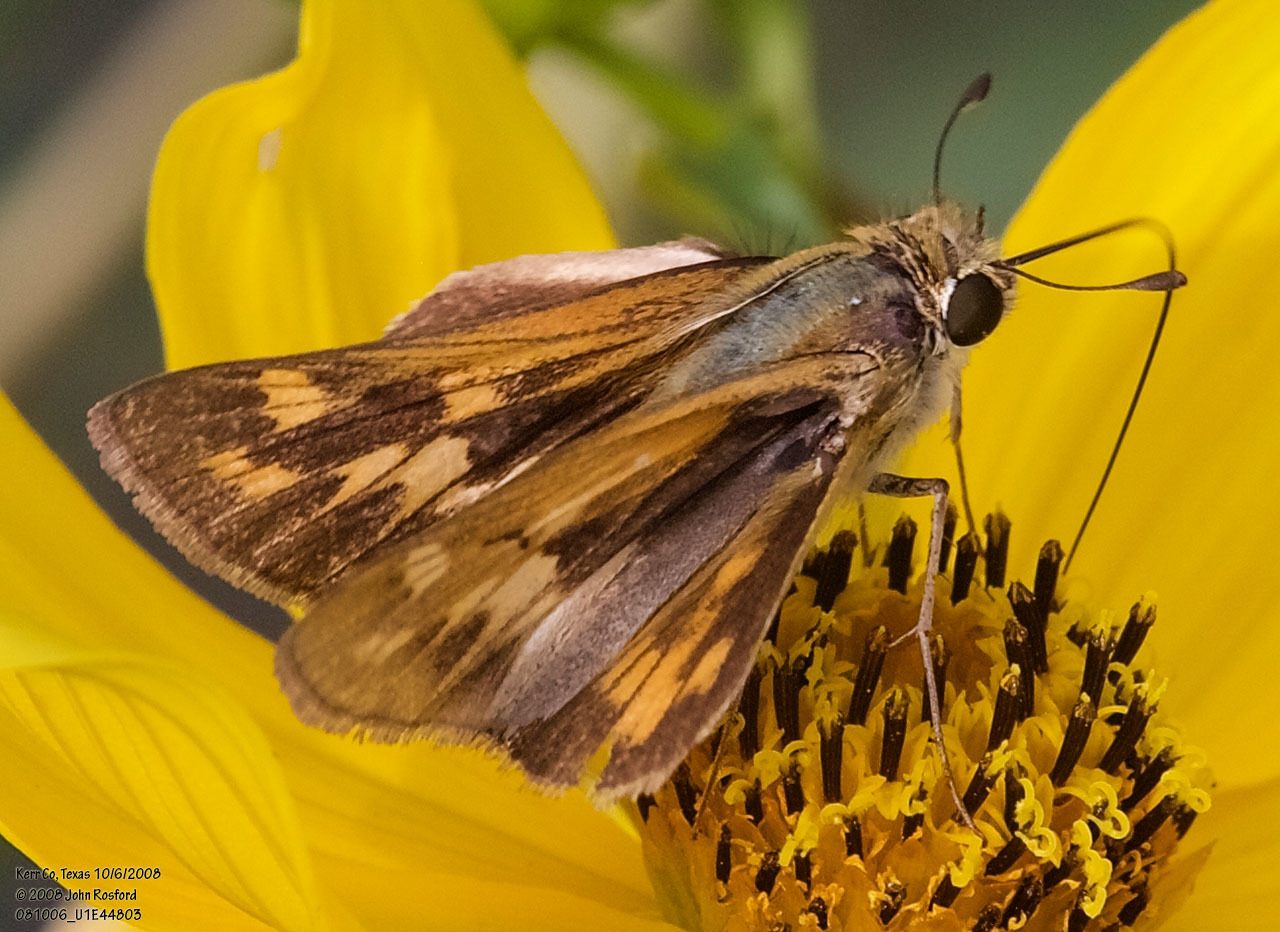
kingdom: Animalia
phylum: Arthropoda
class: Insecta
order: Lepidoptera
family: Hesperiidae
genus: Hylephila
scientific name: Hylephila phyleus
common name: Fiery skipper
